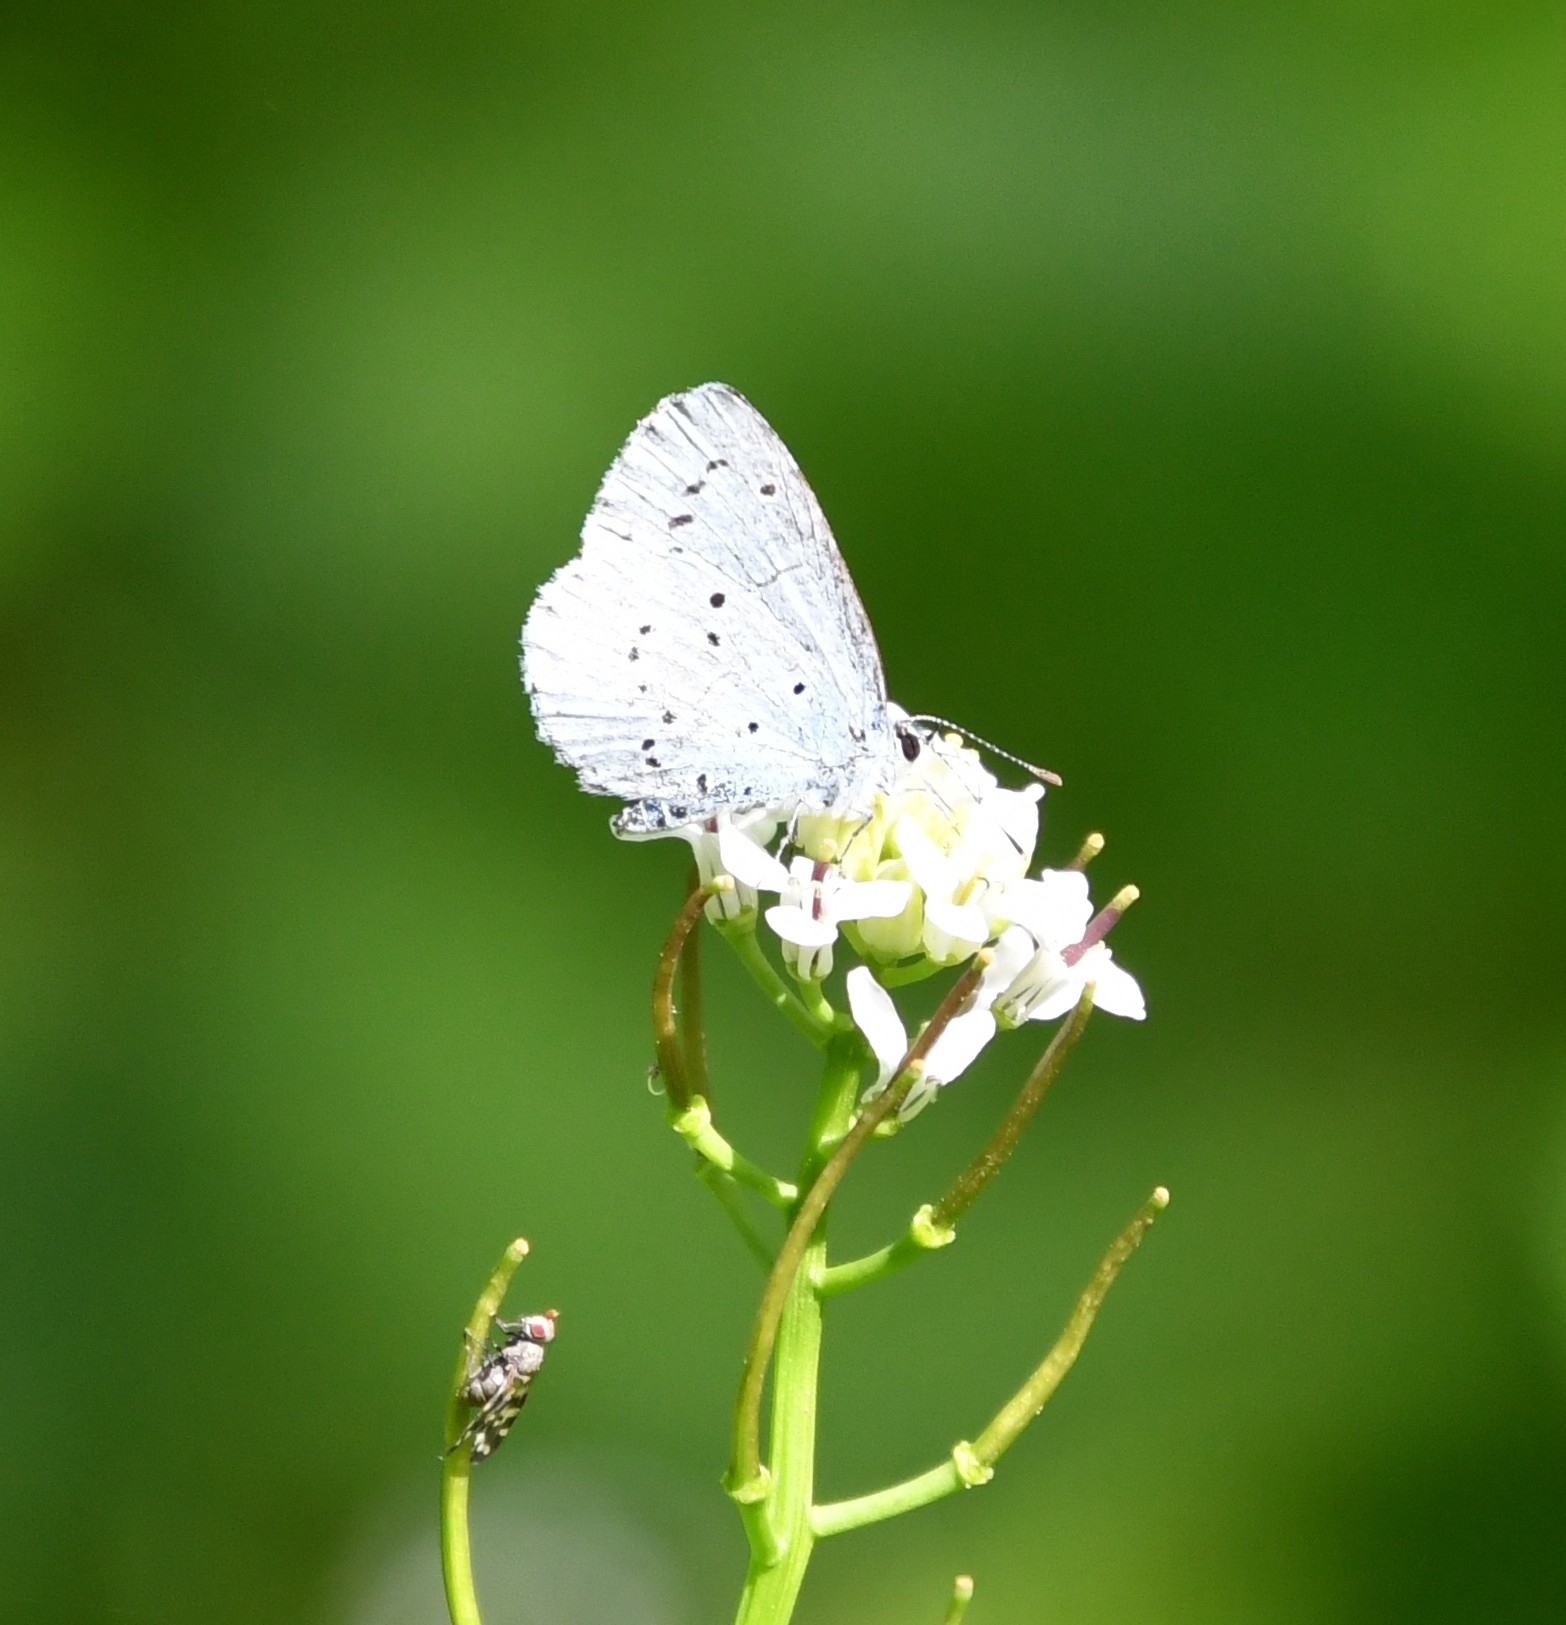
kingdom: Animalia
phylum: Arthropoda
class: Insecta
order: Lepidoptera
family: Lycaenidae
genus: Celastrina
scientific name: Celastrina argiolus
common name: Holly blue
